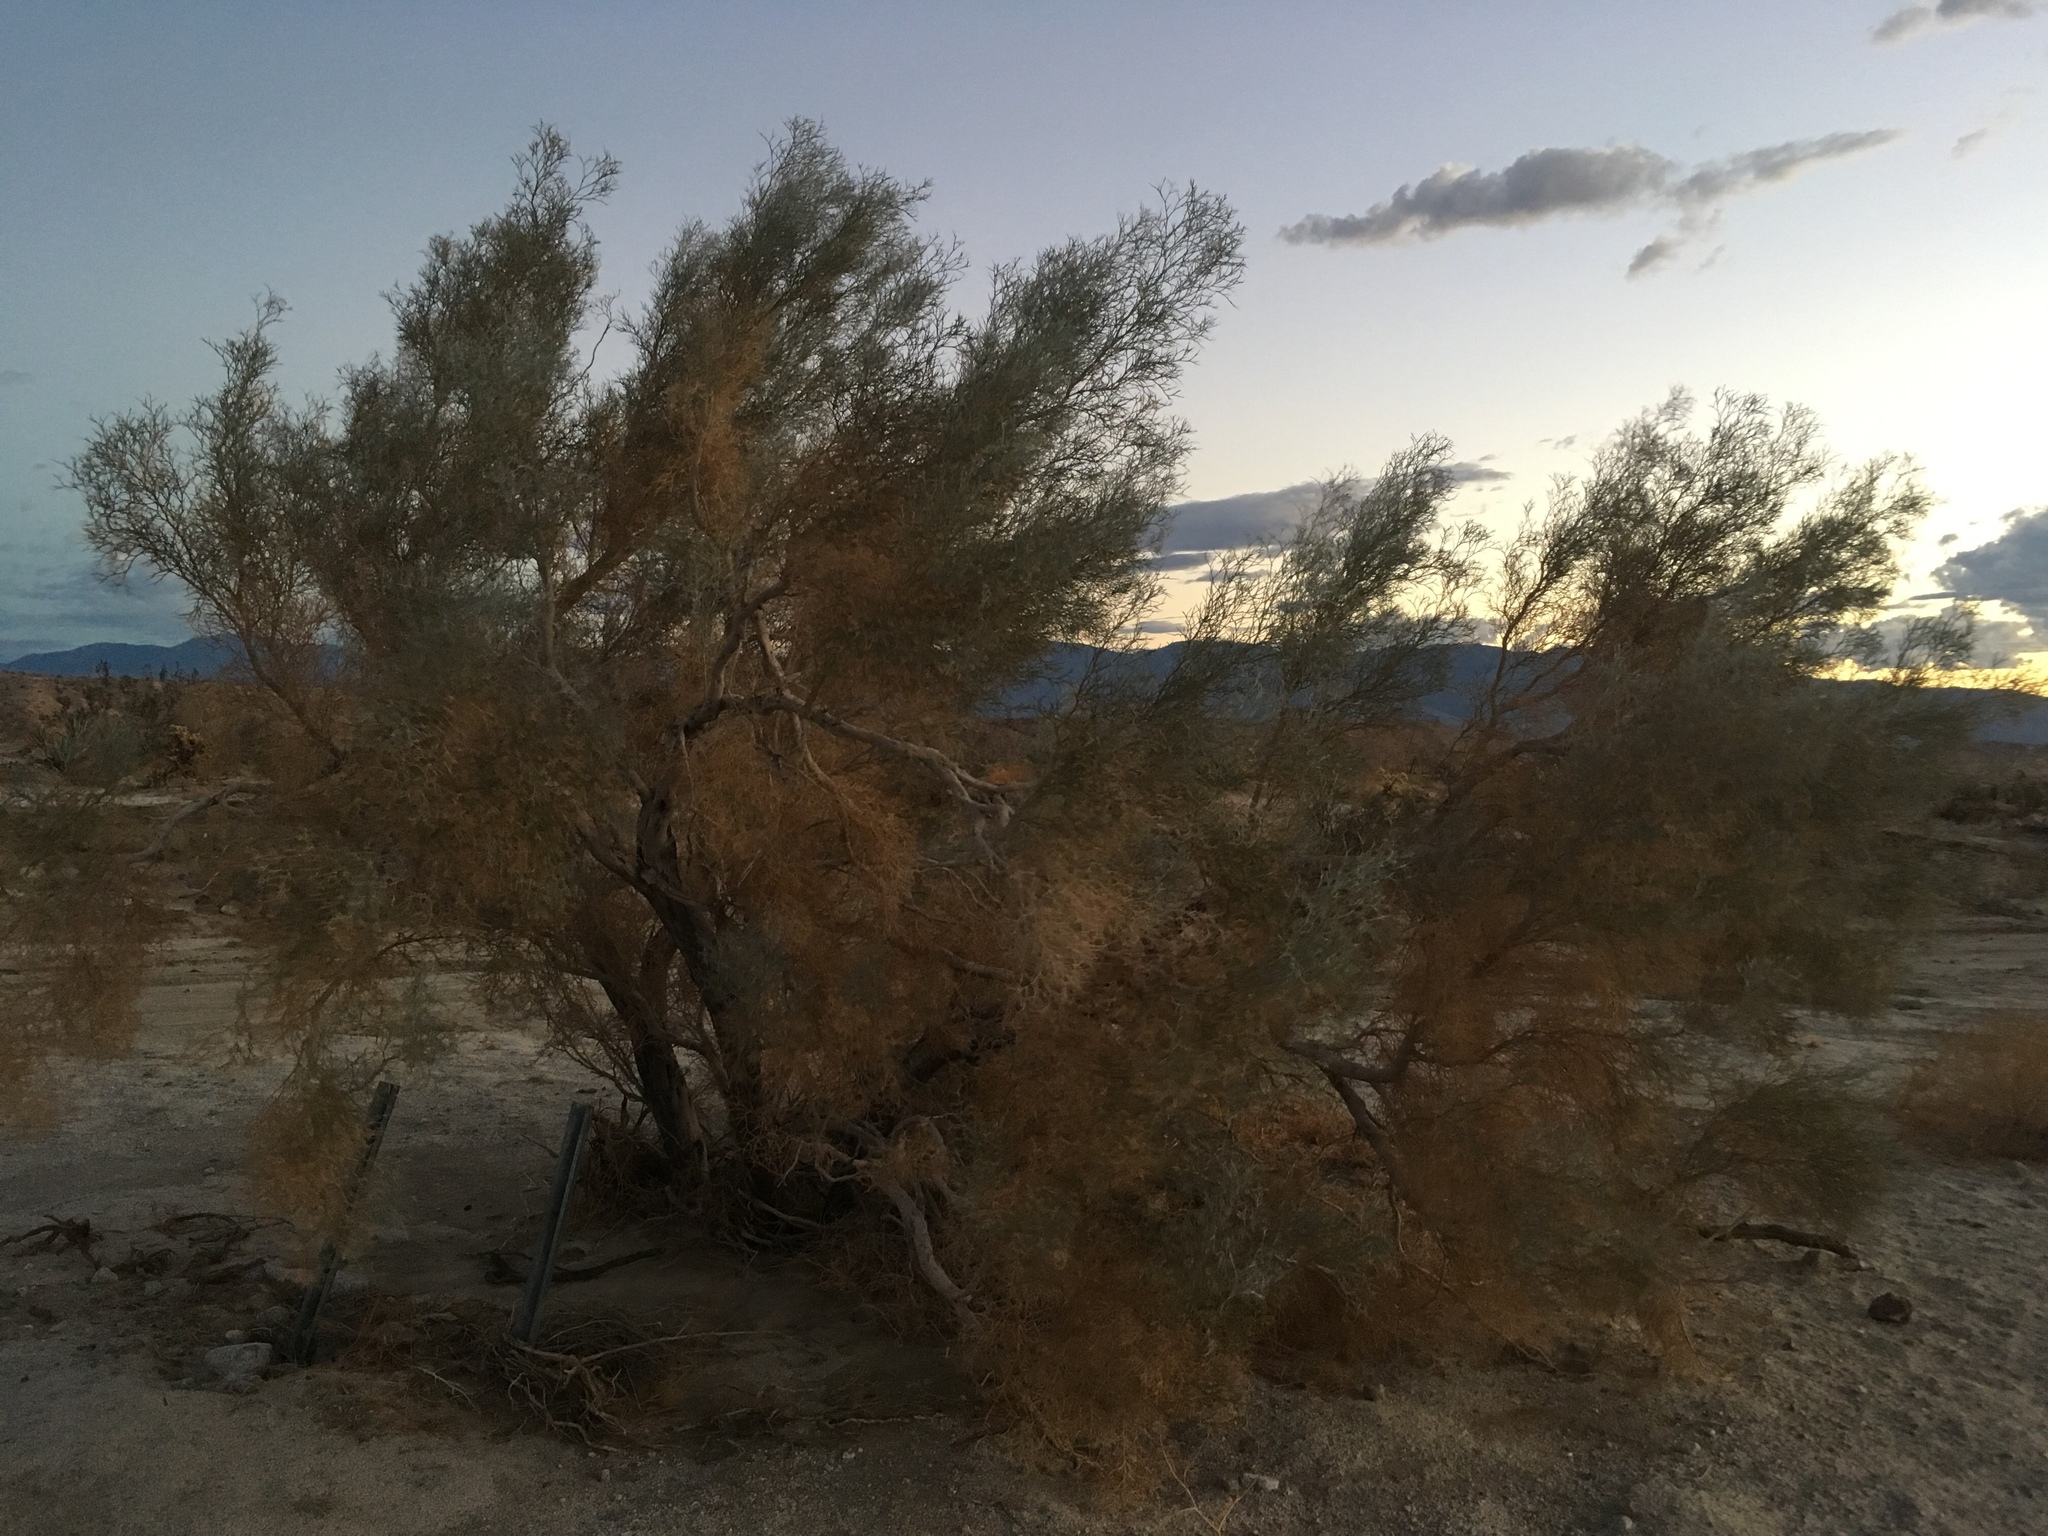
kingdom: Plantae
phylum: Tracheophyta
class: Magnoliopsida
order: Fabales
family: Fabaceae
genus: Psorothamnus
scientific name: Psorothamnus spinosus
